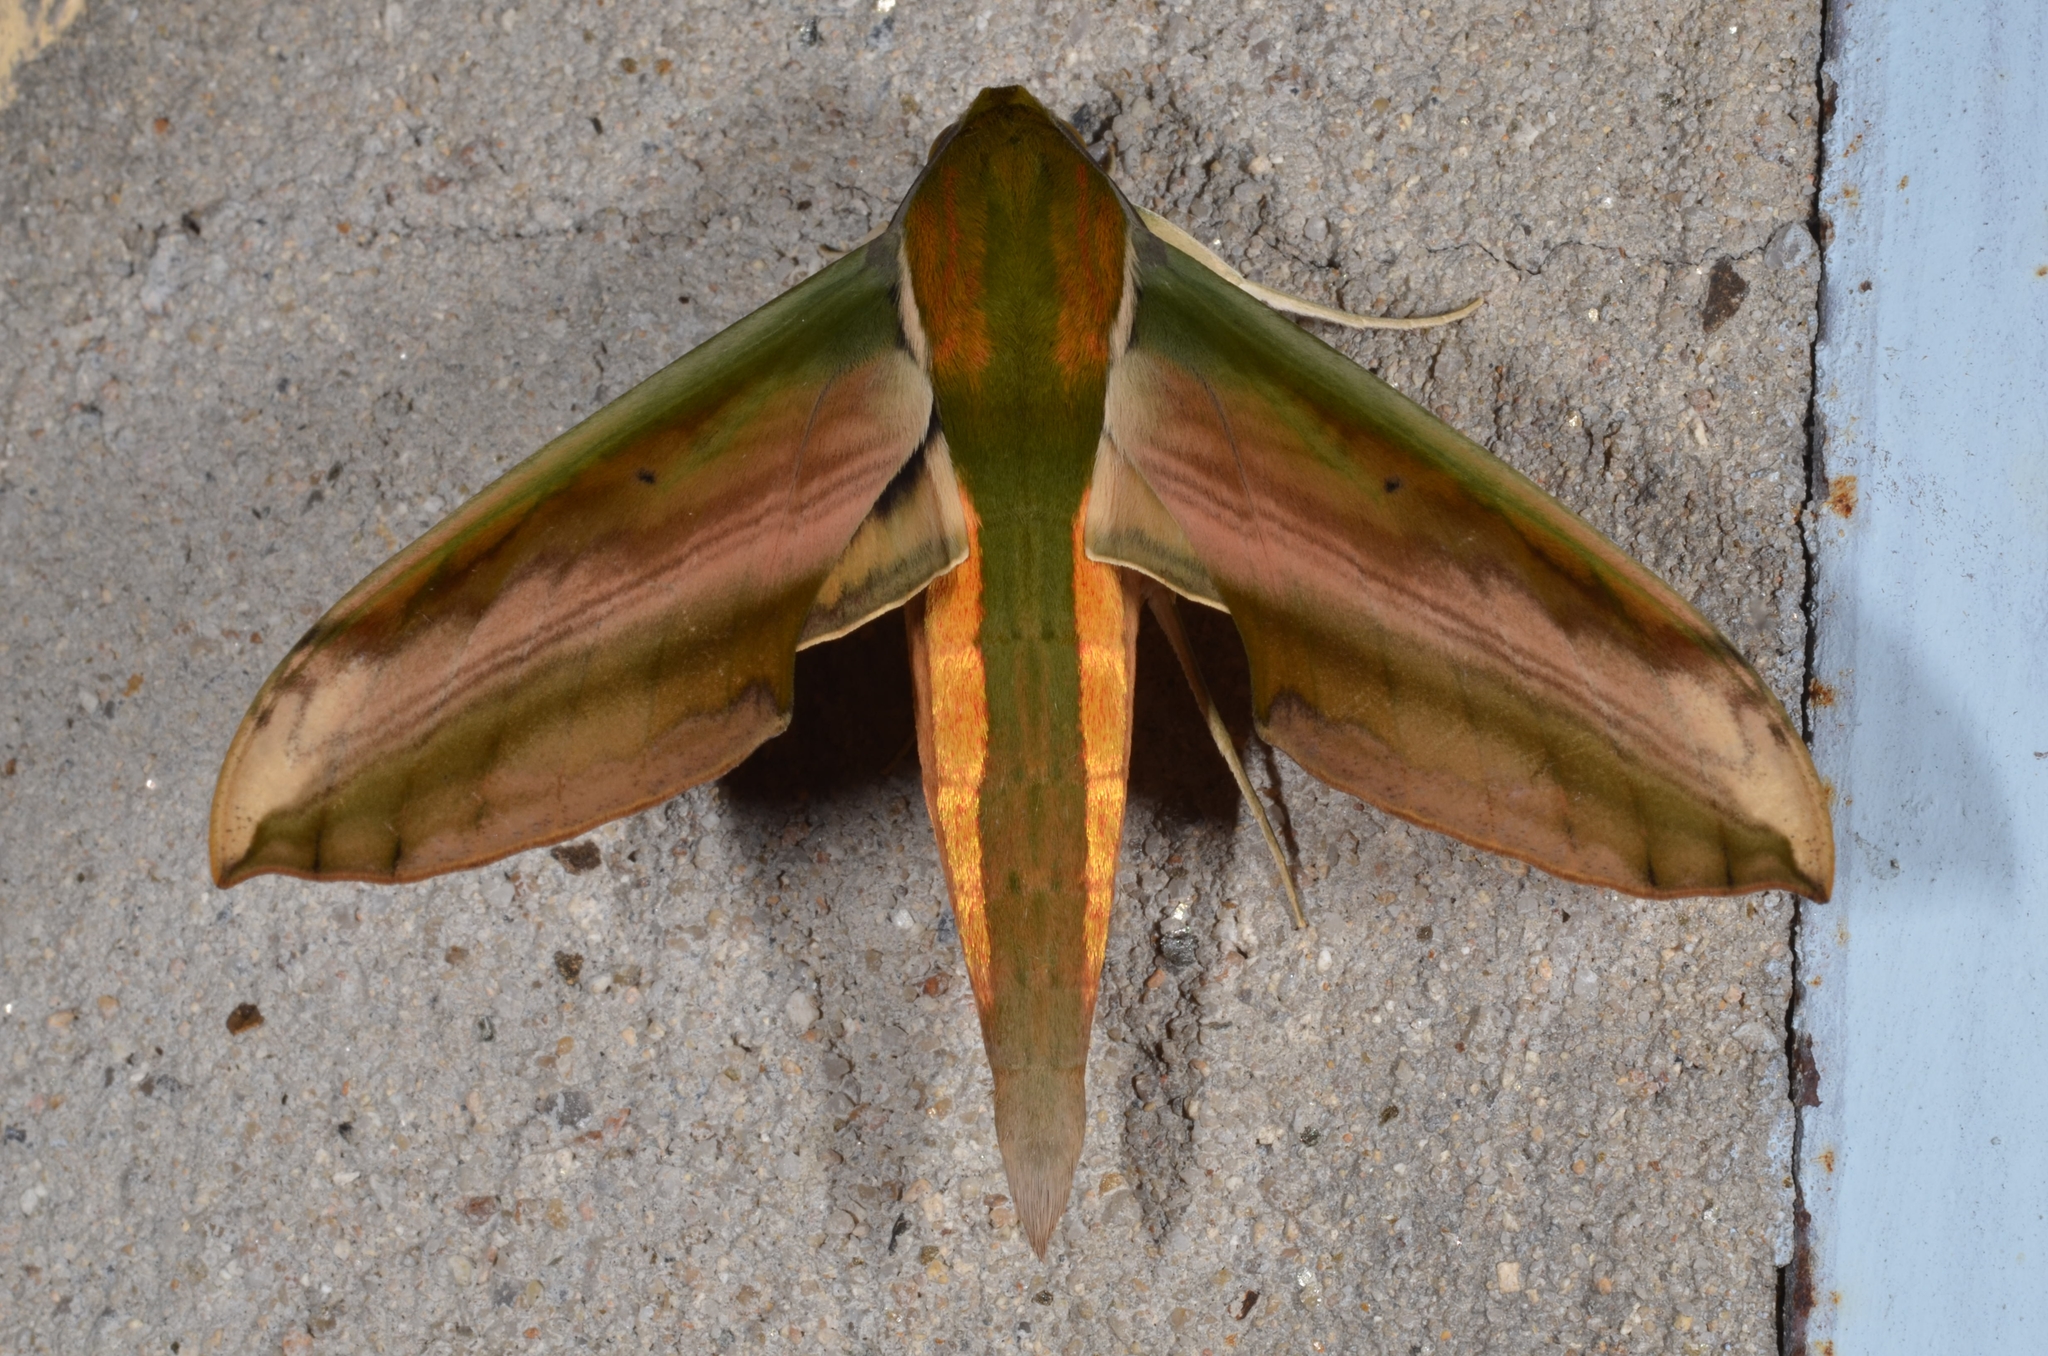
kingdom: Animalia
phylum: Arthropoda
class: Insecta
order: Lepidoptera
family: Sphingidae
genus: Theretra
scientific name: Theretra nessus
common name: Yam hawk moth
